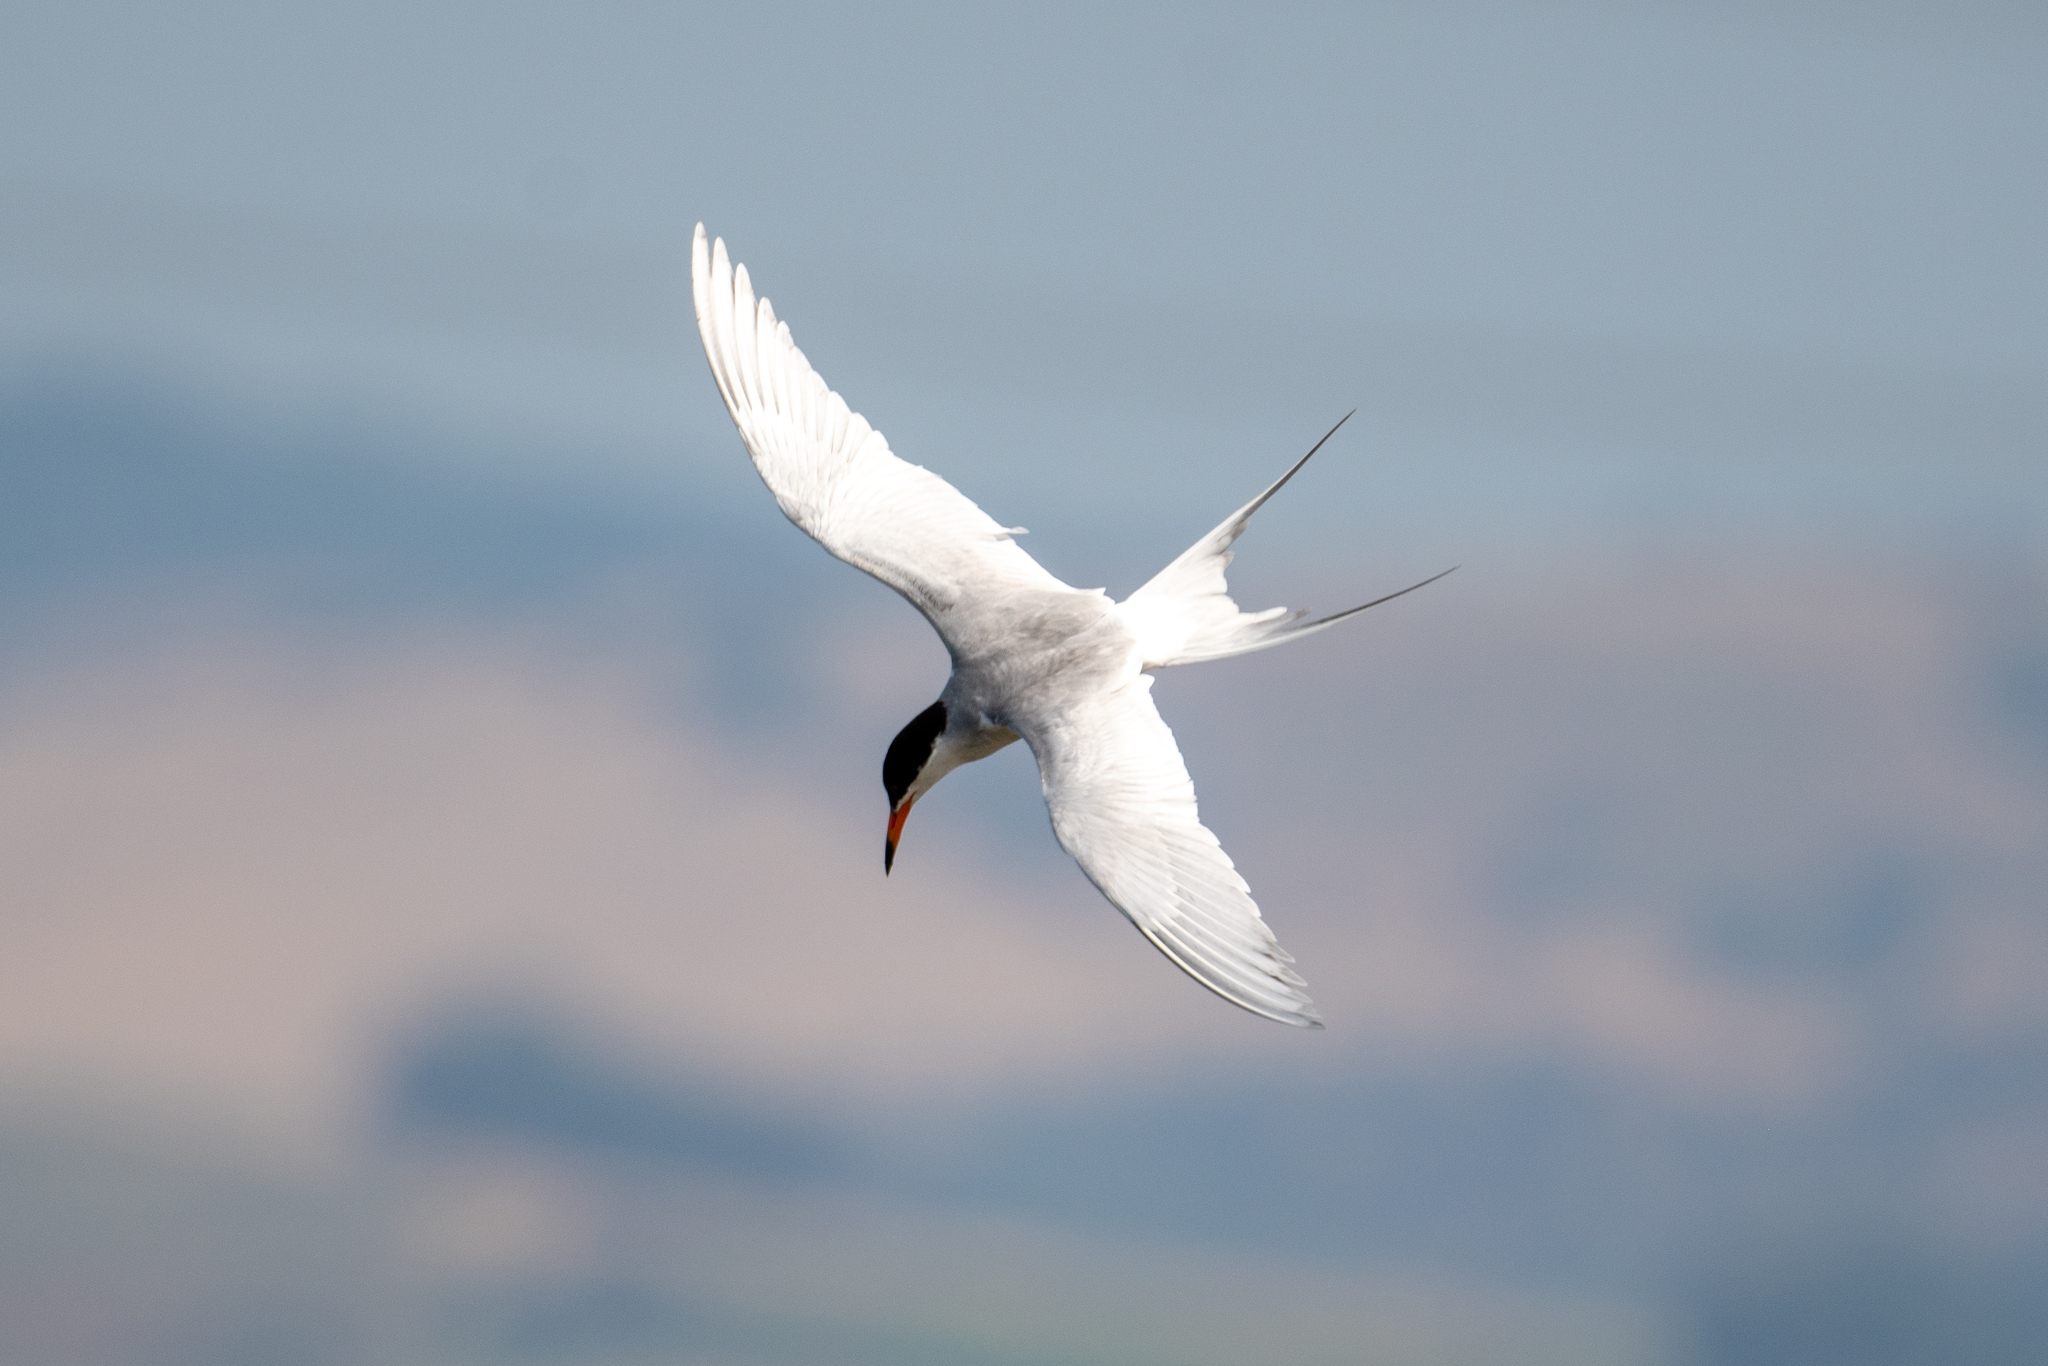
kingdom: Animalia
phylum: Chordata
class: Aves
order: Charadriiformes
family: Laridae
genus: Sterna
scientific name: Sterna forsteri
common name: Forster's tern
